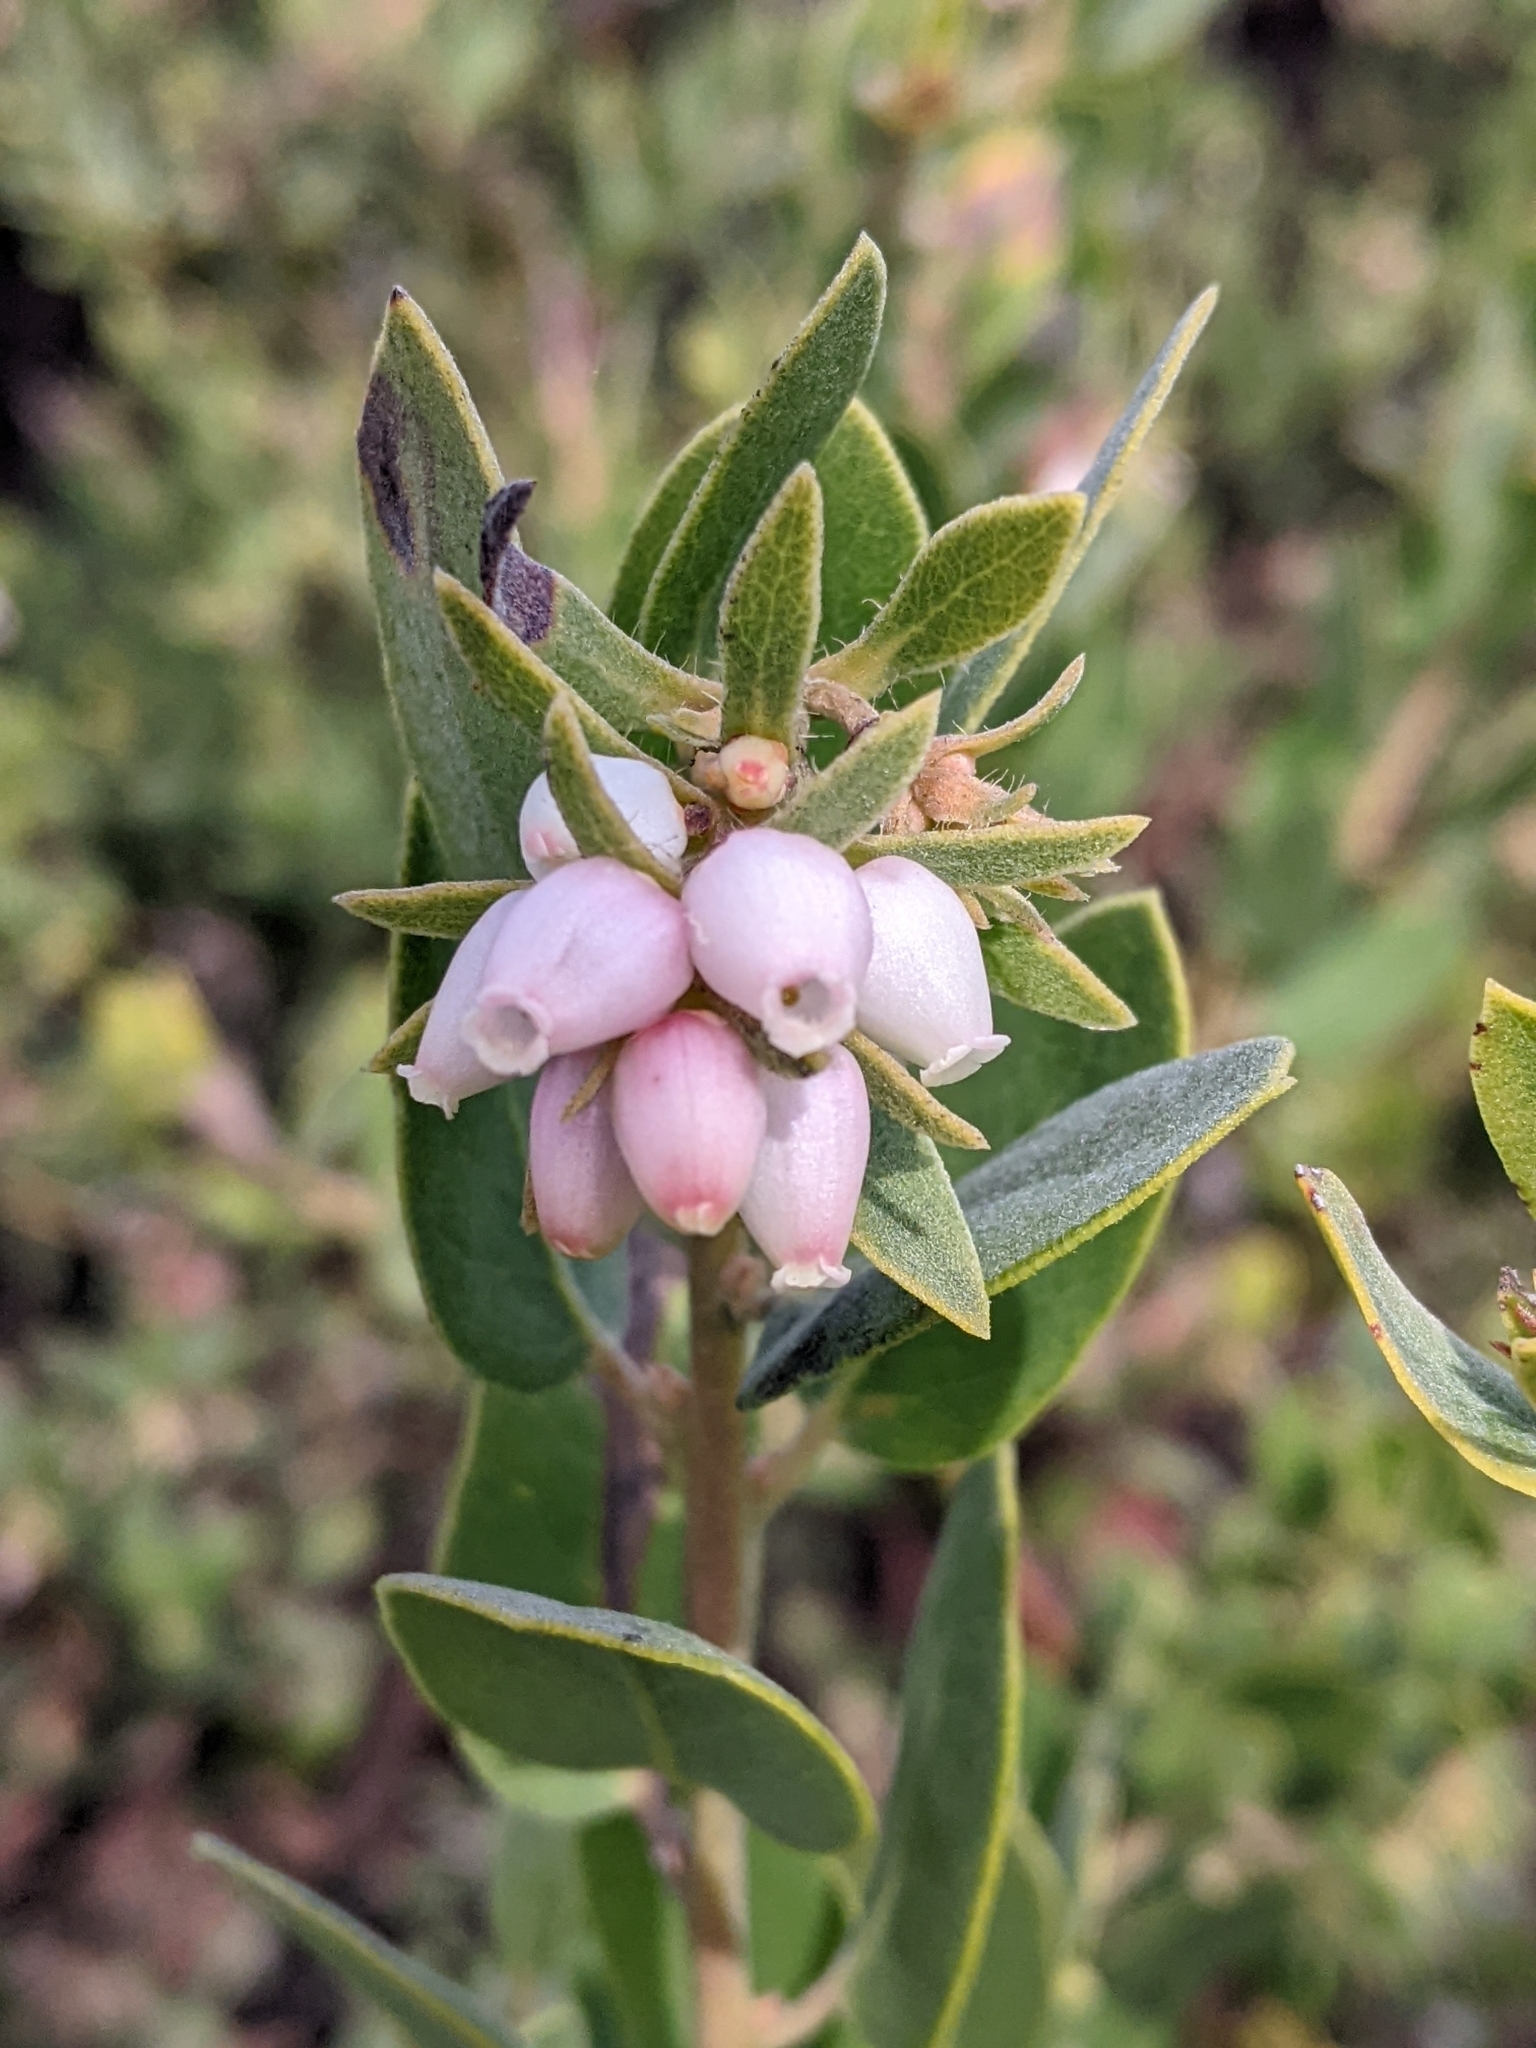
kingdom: Plantae
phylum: Tracheophyta
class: Magnoliopsida
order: Ericales
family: Ericaceae
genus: Arctostaphylos
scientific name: Arctostaphylos morroensis
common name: Morro manzanita
